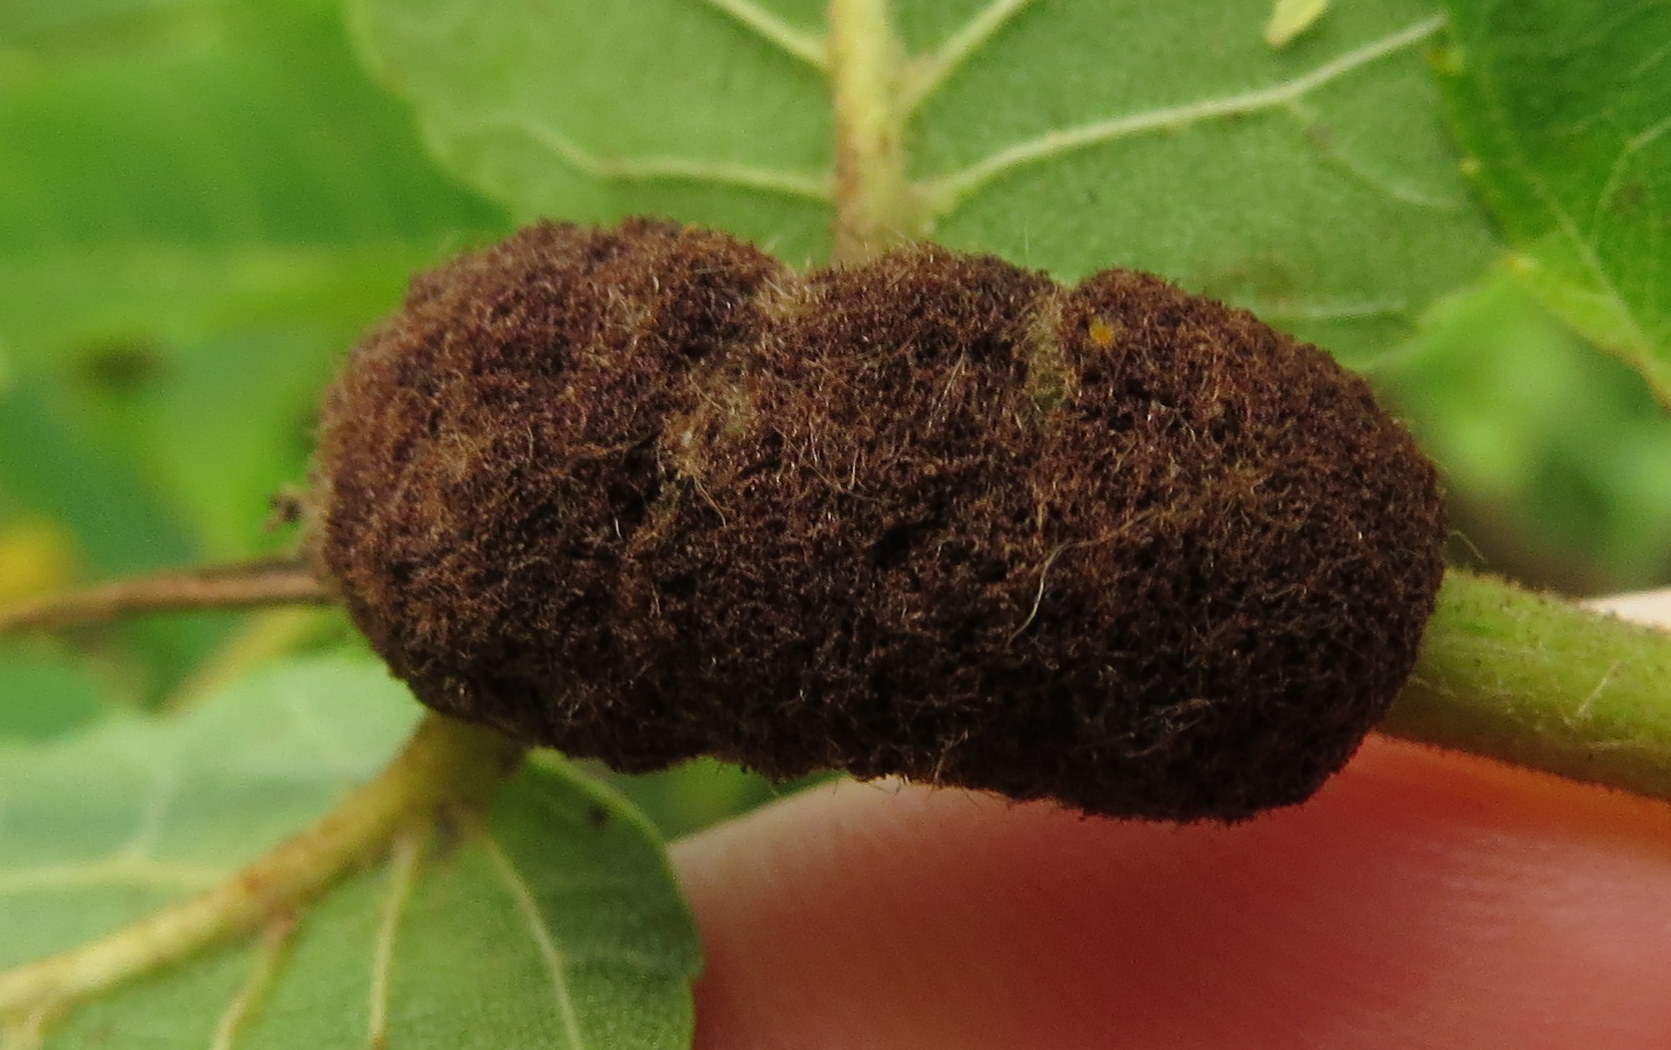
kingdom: Animalia
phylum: Arthropoda
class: Arachnida
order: Trombidiformes
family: Eriophyidae
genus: Aceria
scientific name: Aceria
